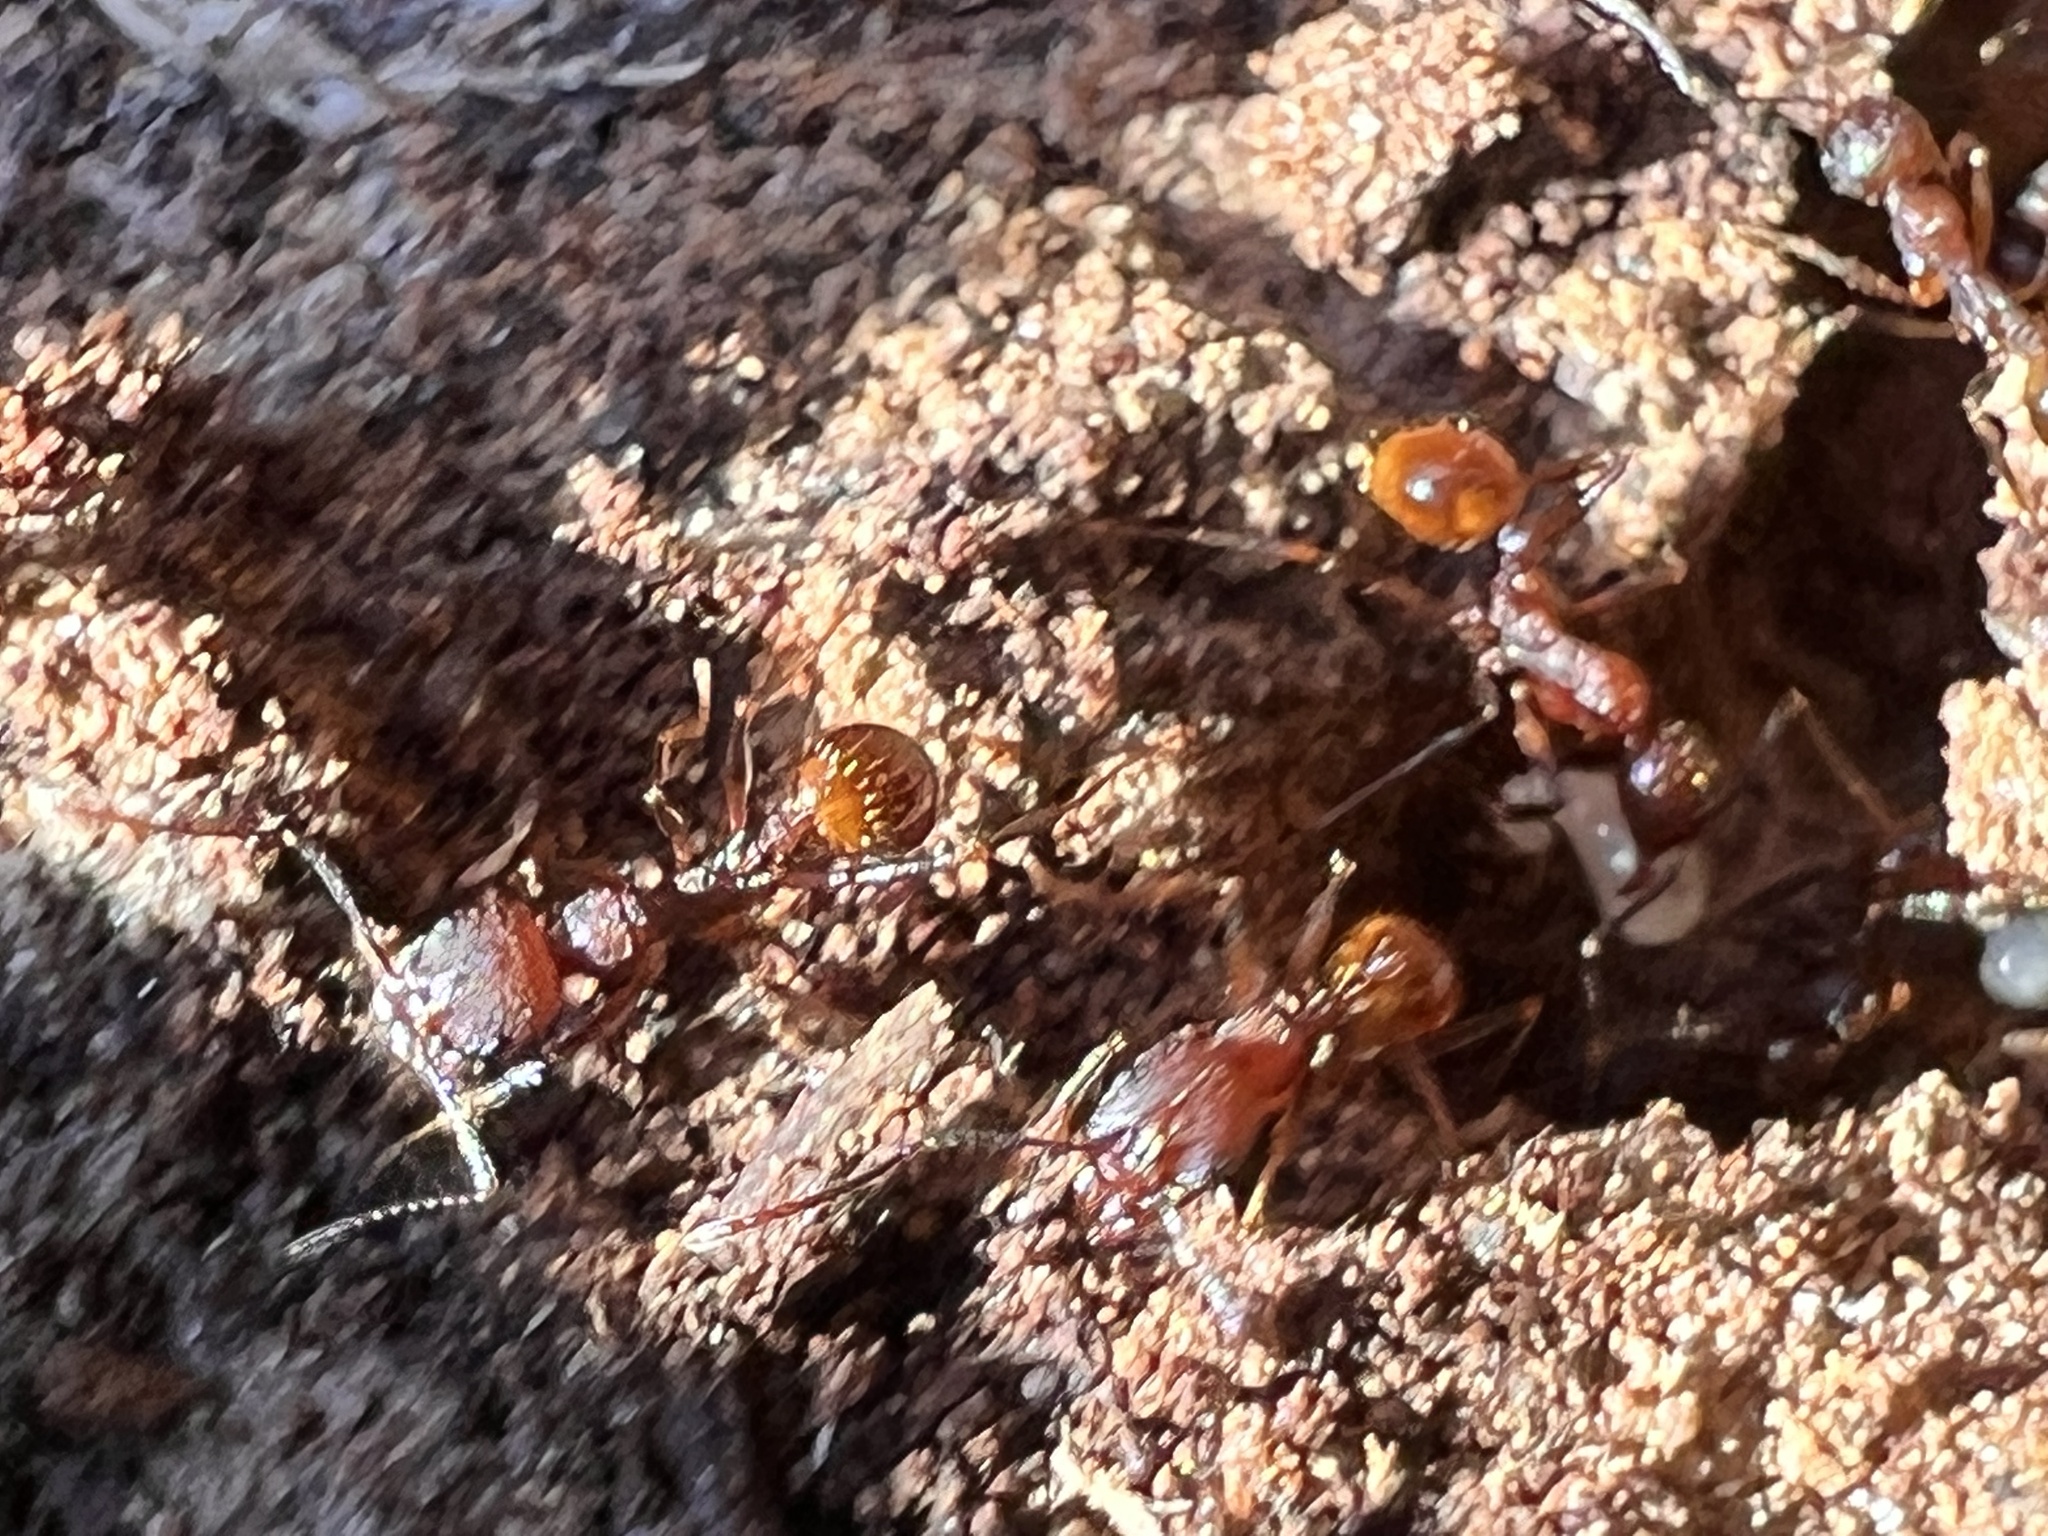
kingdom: Animalia
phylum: Arthropoda
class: Insecta
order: Hymenoptera
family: Formicidae
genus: Aphaenogaster
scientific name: Aphaenogaster fulva
